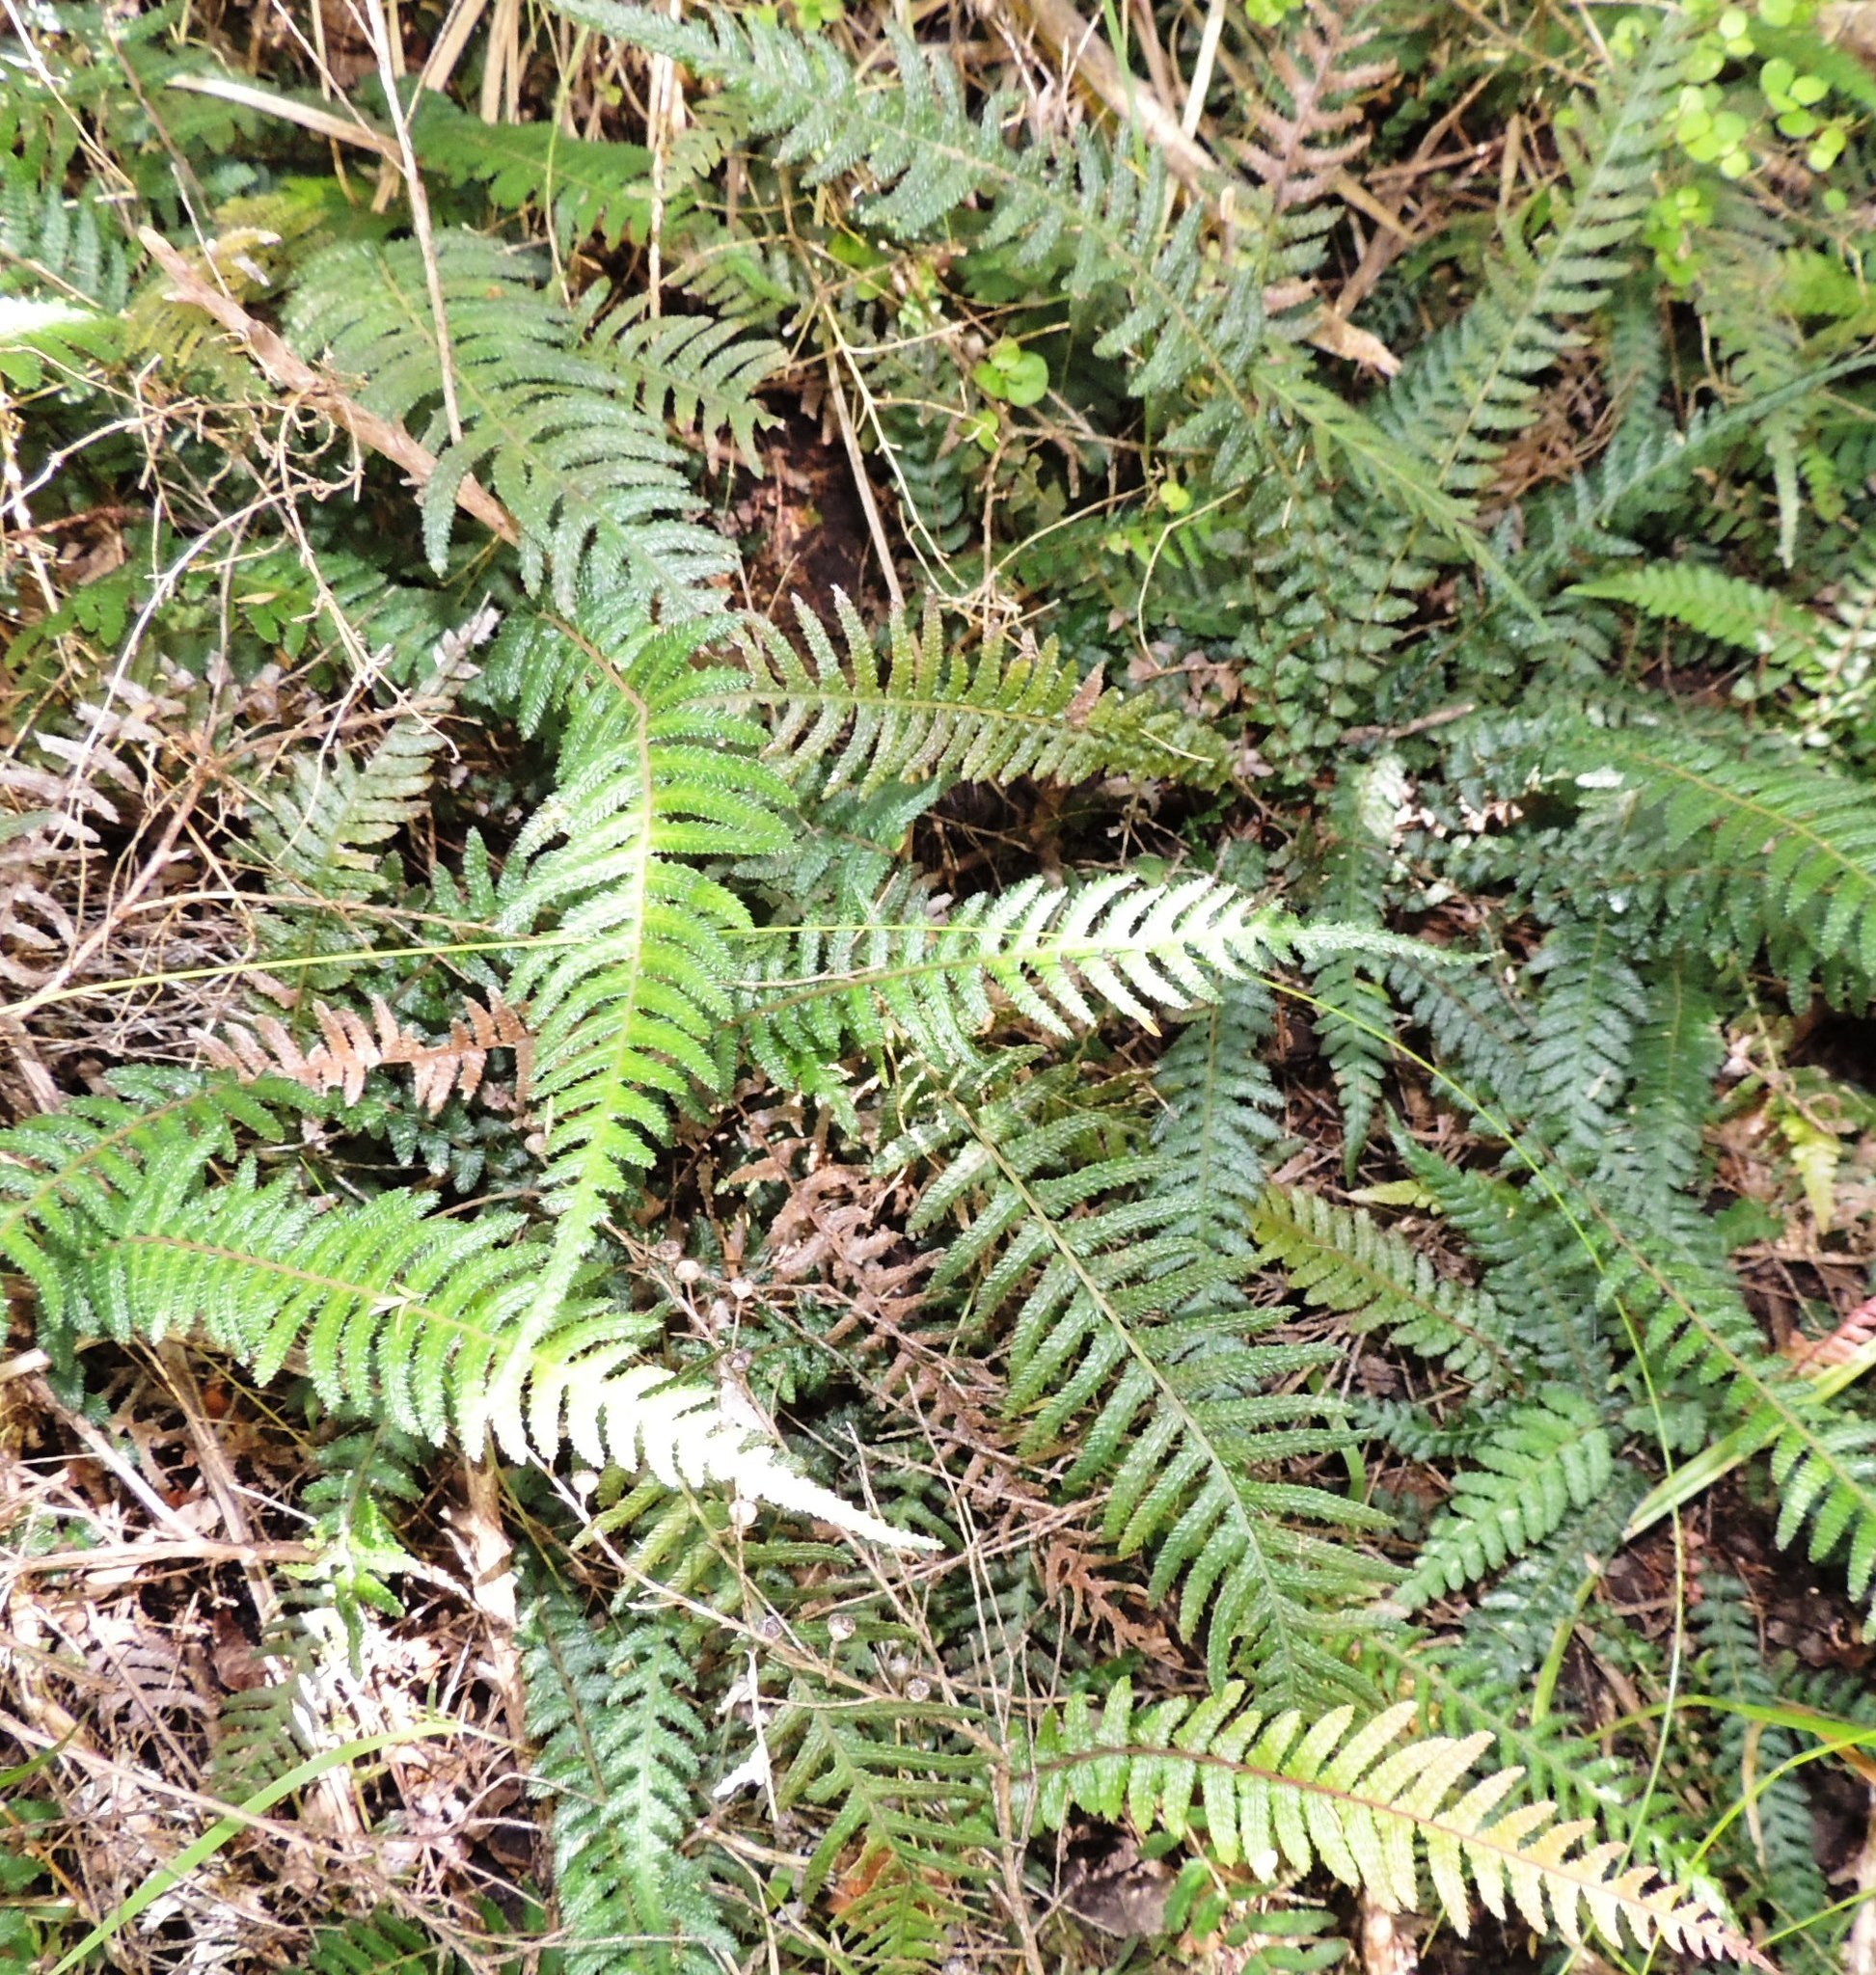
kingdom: Plantae
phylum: Tracheophyta
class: Polypodiopsida
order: Polypodiales
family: Blechnaceae
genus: Doodia
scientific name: Doodia australis
